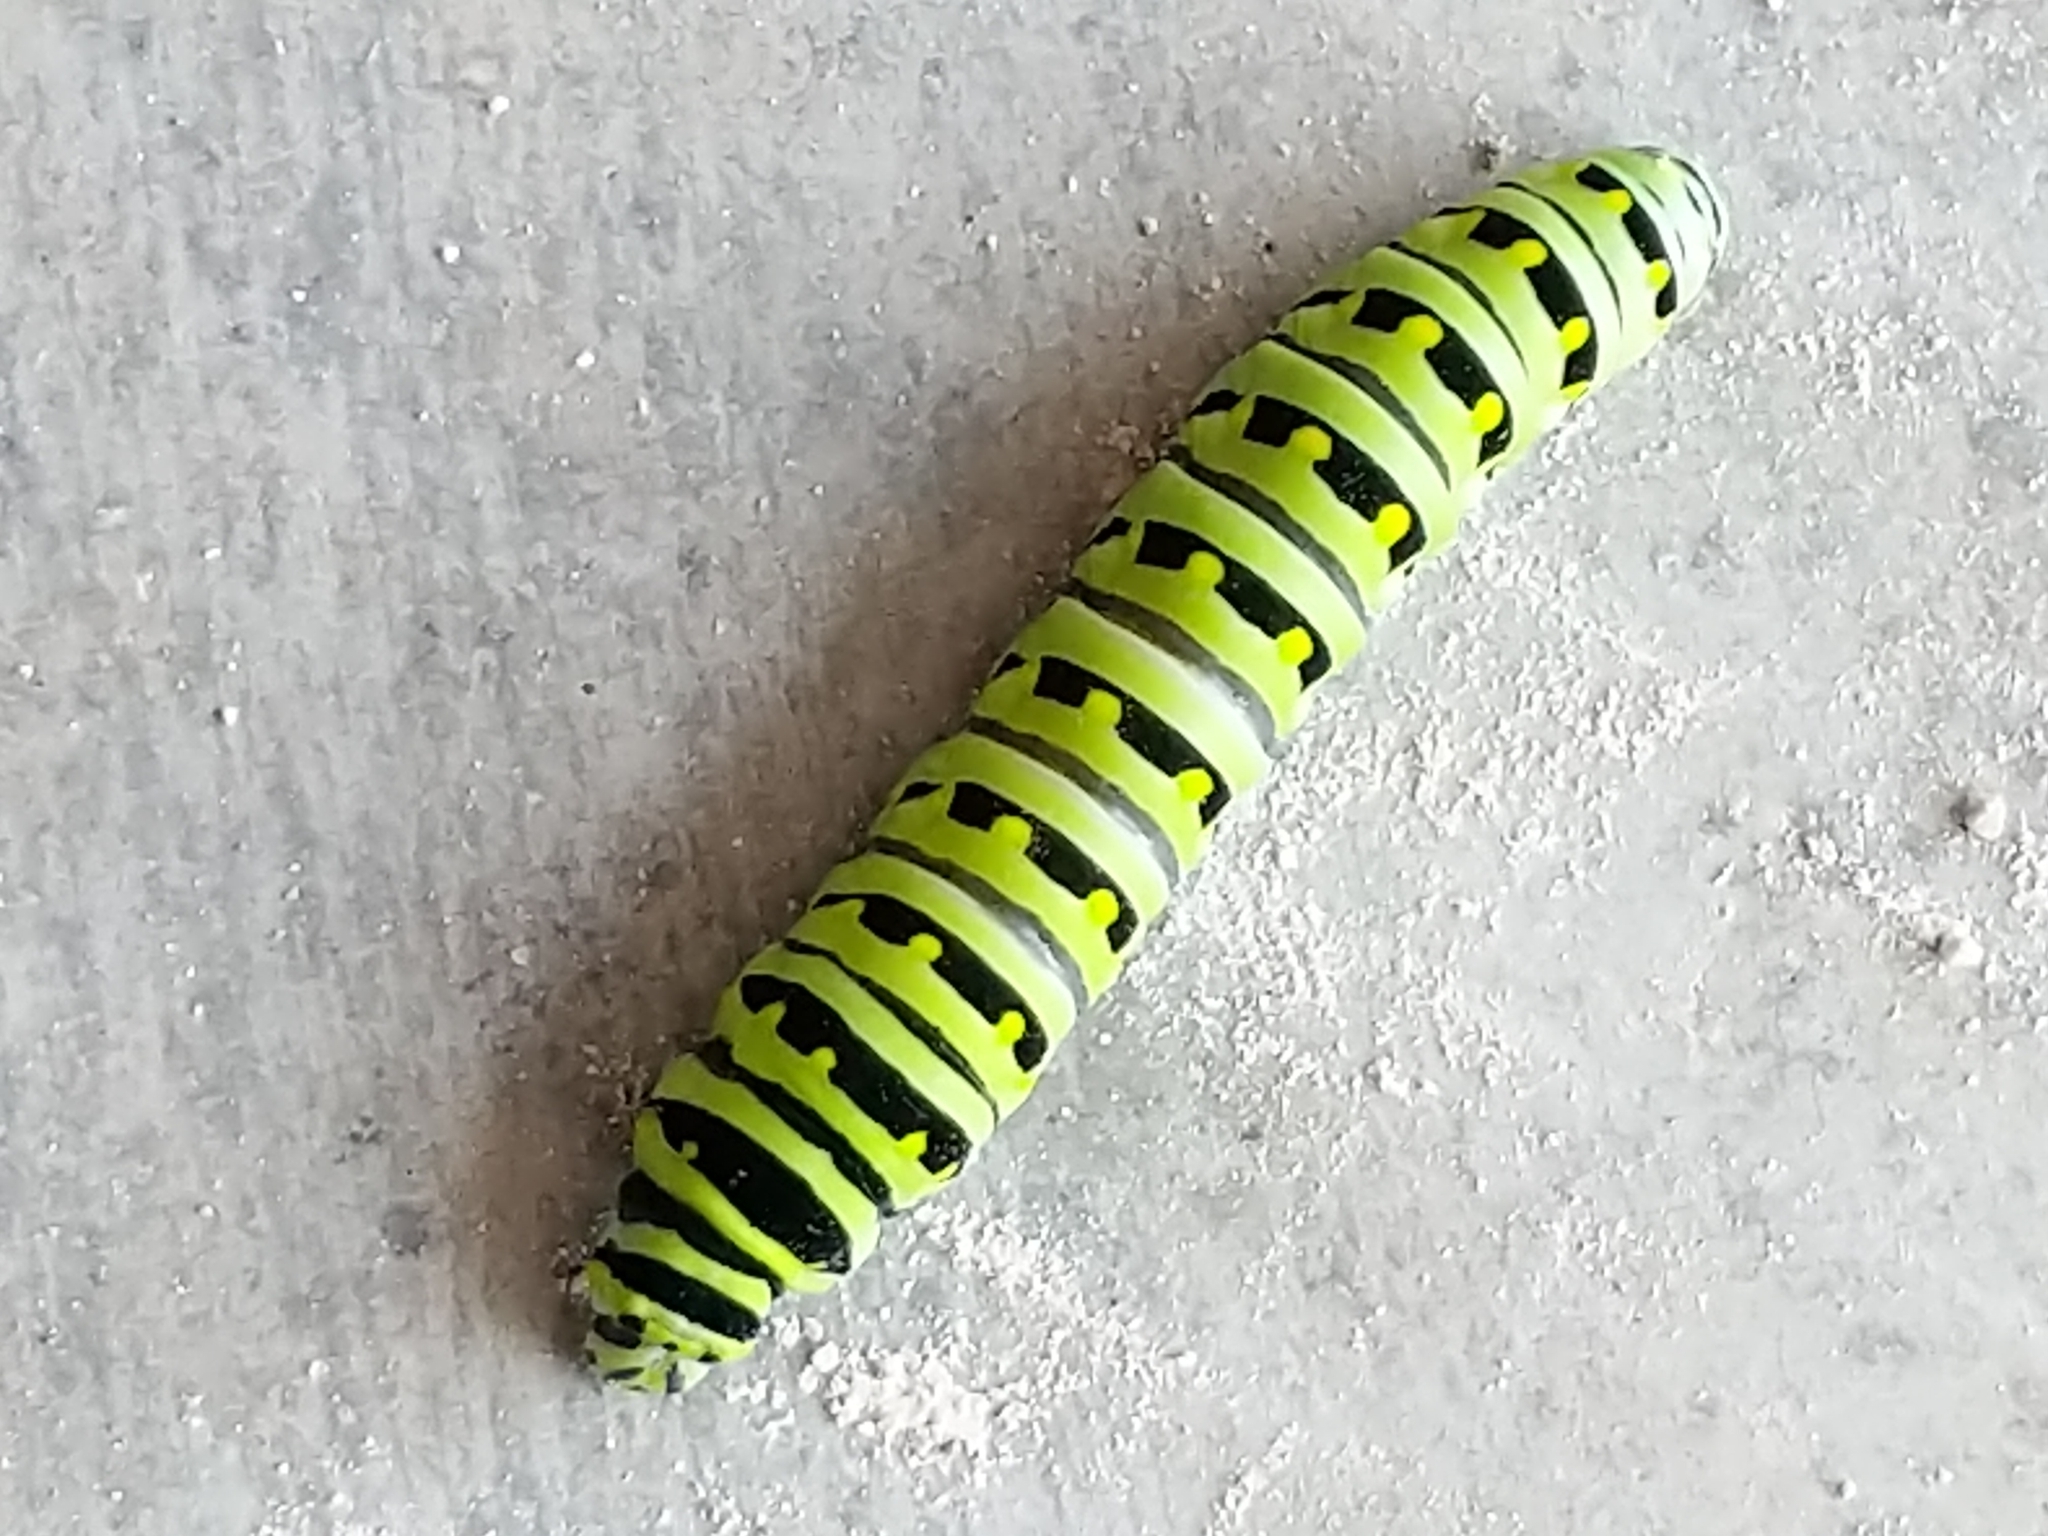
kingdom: Animalia
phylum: Arthropoda
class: Insecta
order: Lepidoptera
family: Papilionidae
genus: Papilio
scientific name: Papilio polyxenes
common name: Black swallowtail
